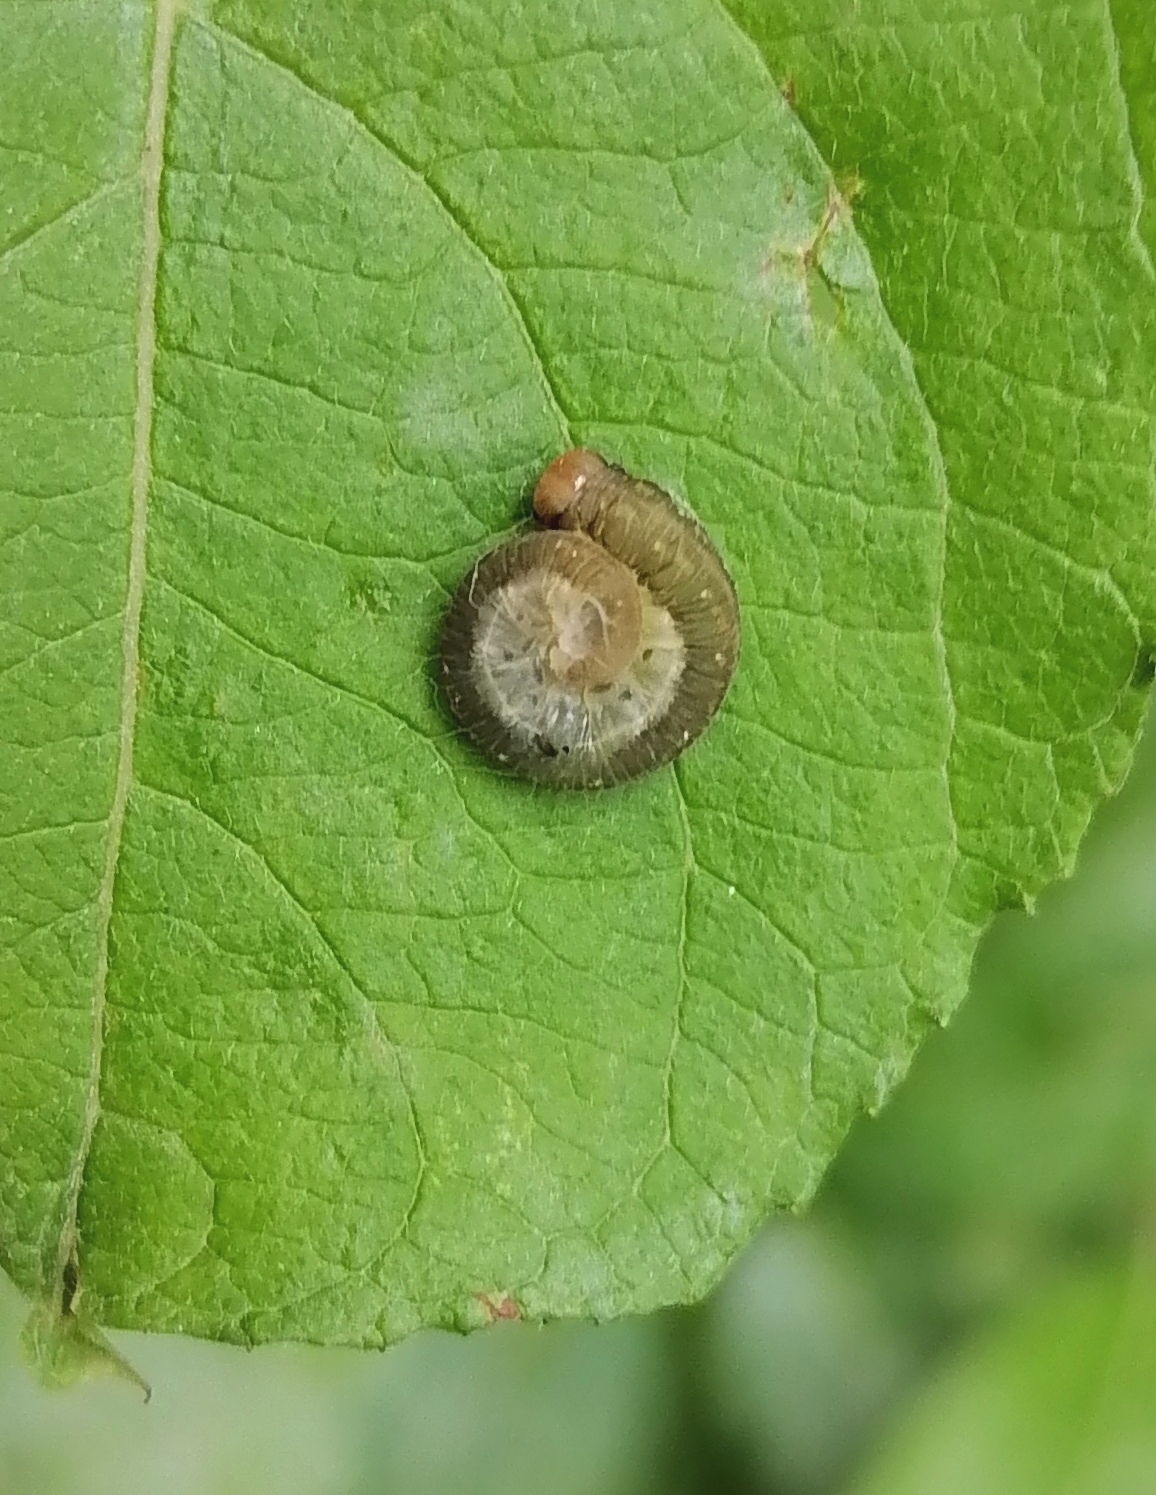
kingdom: Animalia
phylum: Arthropoda
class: Insecta
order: Hymenoptera
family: Tenthredinidae
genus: Pachyprotasis
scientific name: Pachyprotasis antennata
